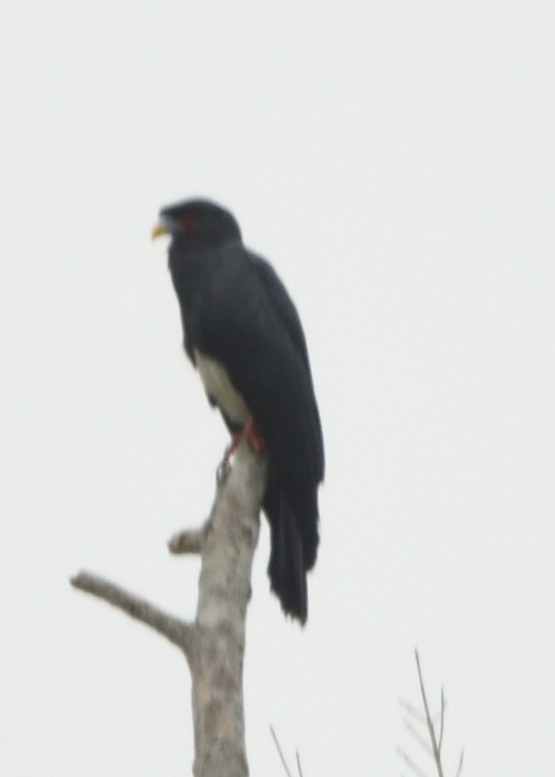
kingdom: Animalia
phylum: Chordata
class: Aves
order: Falconiformes
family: Falconidae
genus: Ibycter
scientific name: Ibycter americanus
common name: Red-throated caracara
